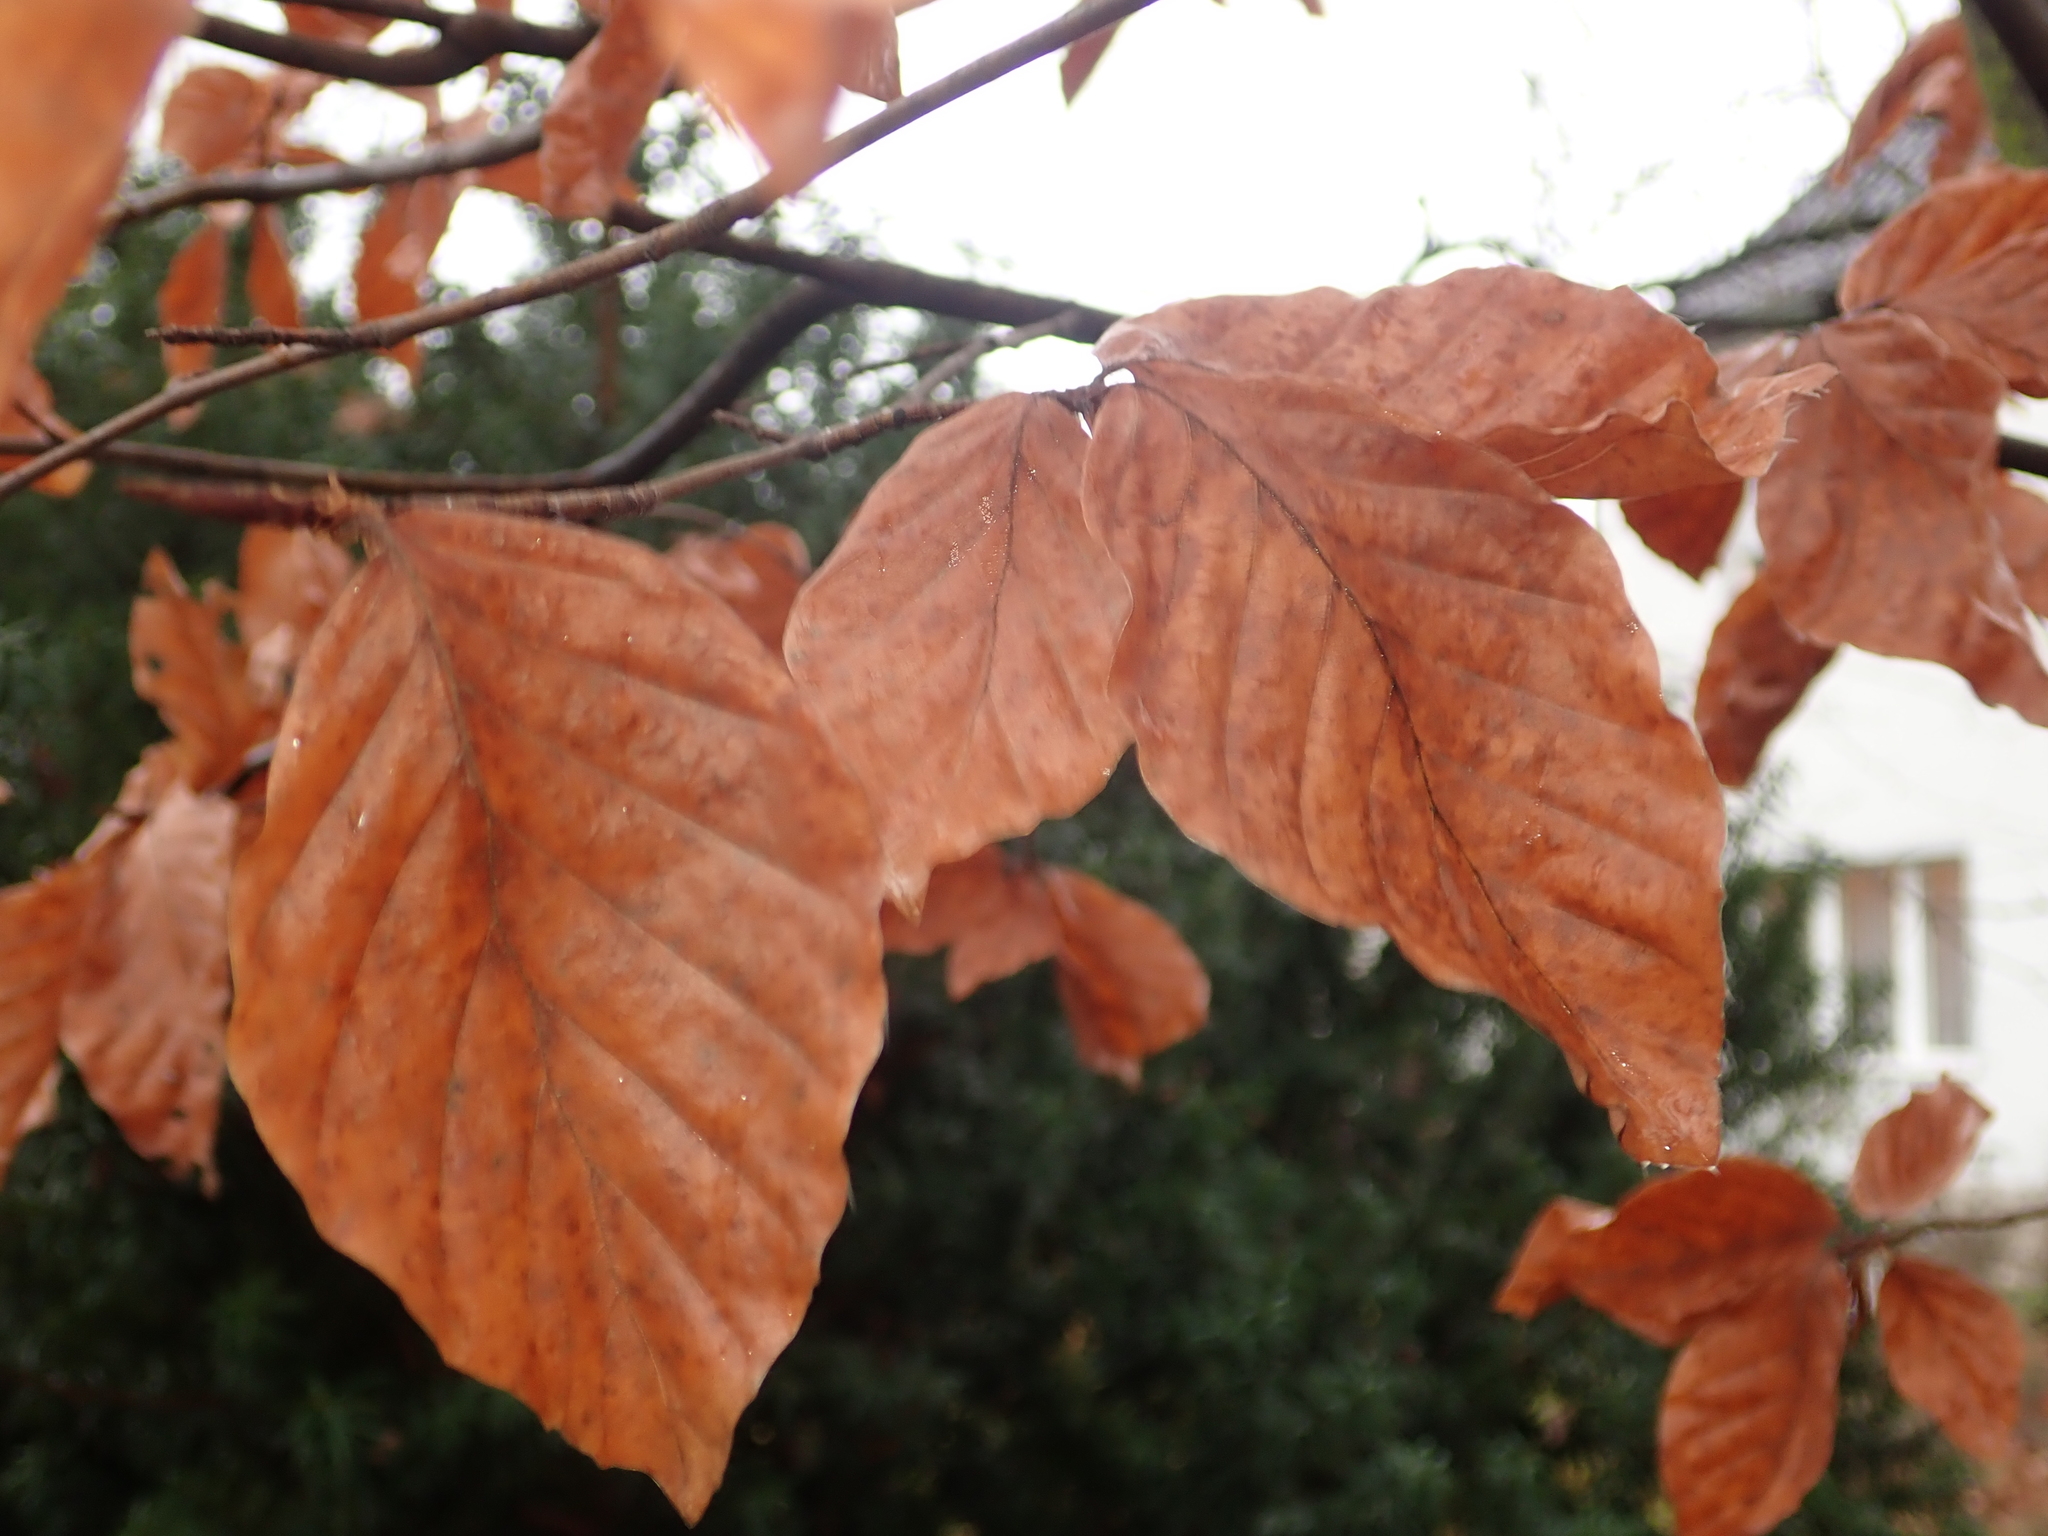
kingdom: Plantae
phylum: Tracheophyta
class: Magnoliopsida
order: Fagales
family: Fagaceae
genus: Fagus
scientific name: Fagus sylvatica
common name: Beech
